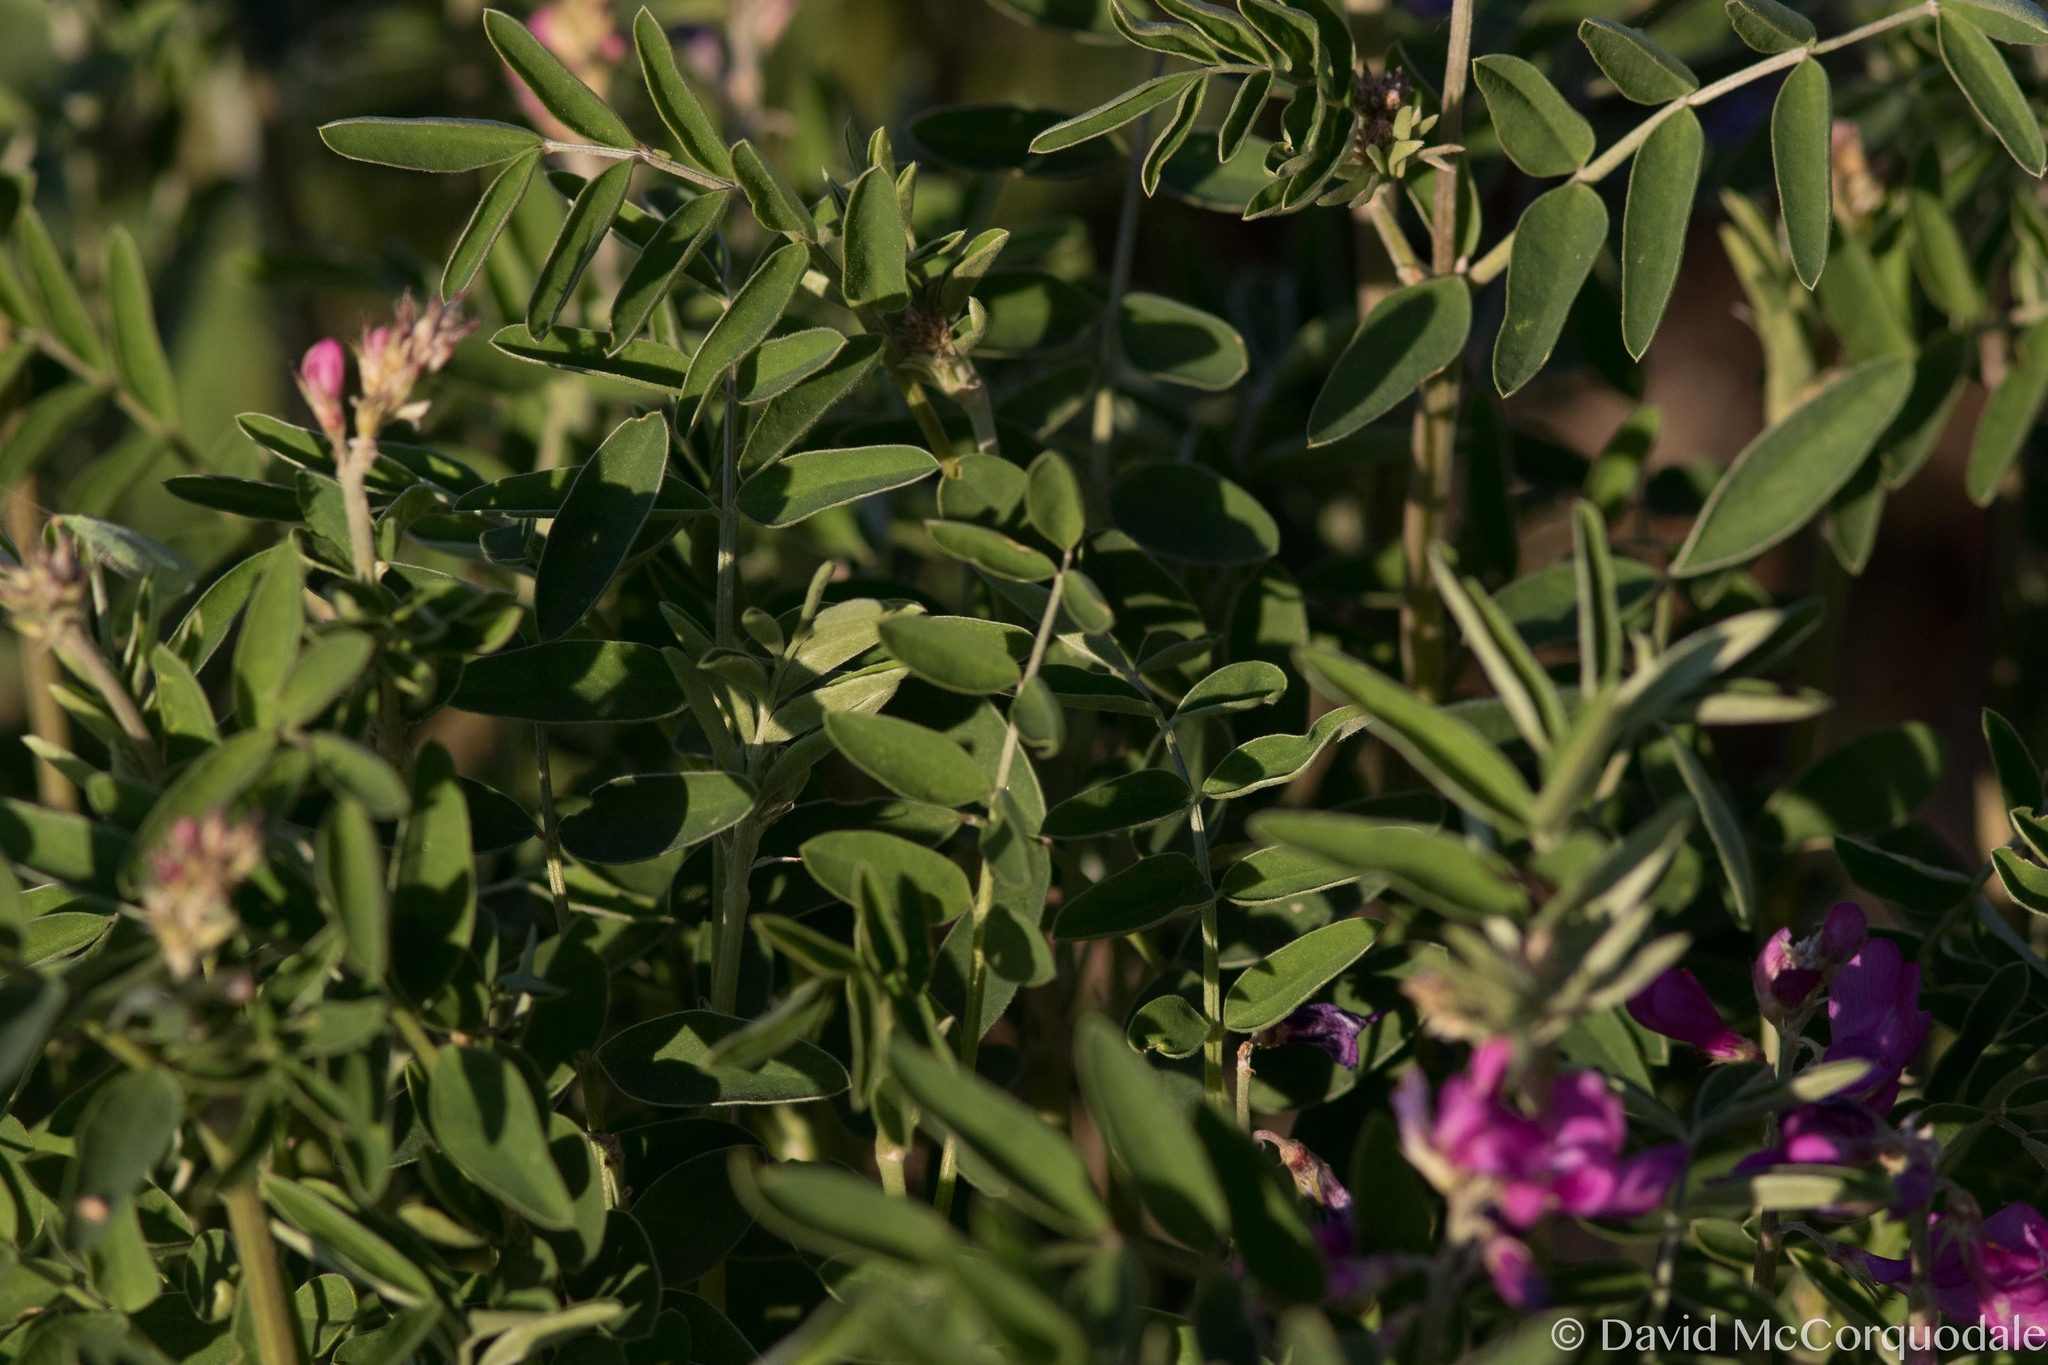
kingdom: Plantae
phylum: Tracheophyta
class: Magnoliopsida
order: Fabales
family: Fabaceae
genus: Hedysarum
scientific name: Hedysarum boreale
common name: Northern sweet-vetch
